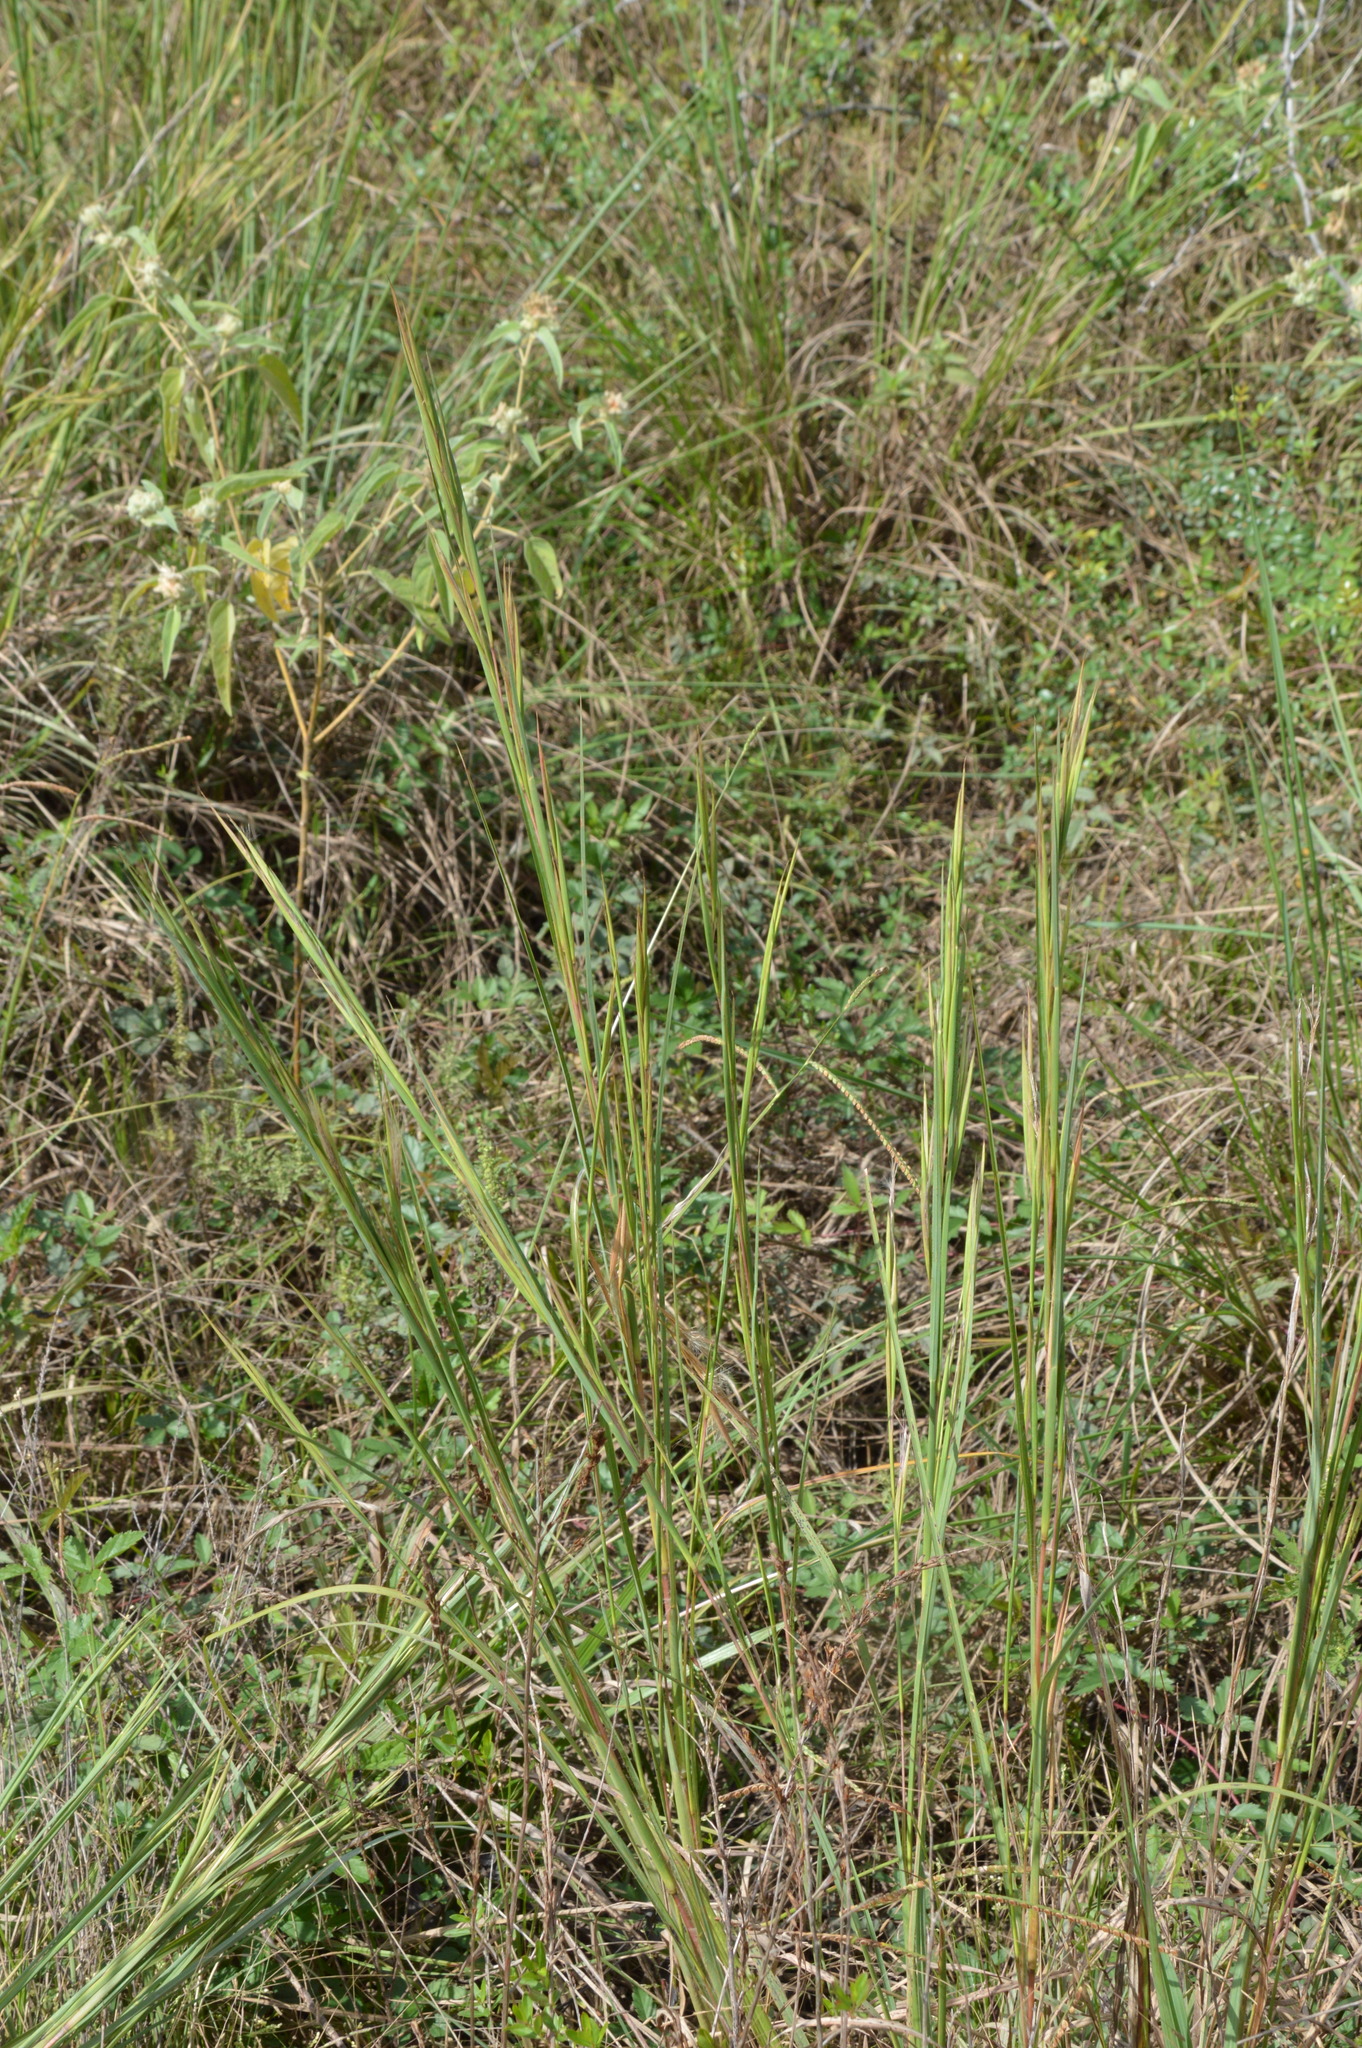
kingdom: Plantae
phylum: Tracheophyta
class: Liliopsida
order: Poales
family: Poaceae
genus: Andropogon
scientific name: Andropogon virginicus
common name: Broomsedge bluestem
